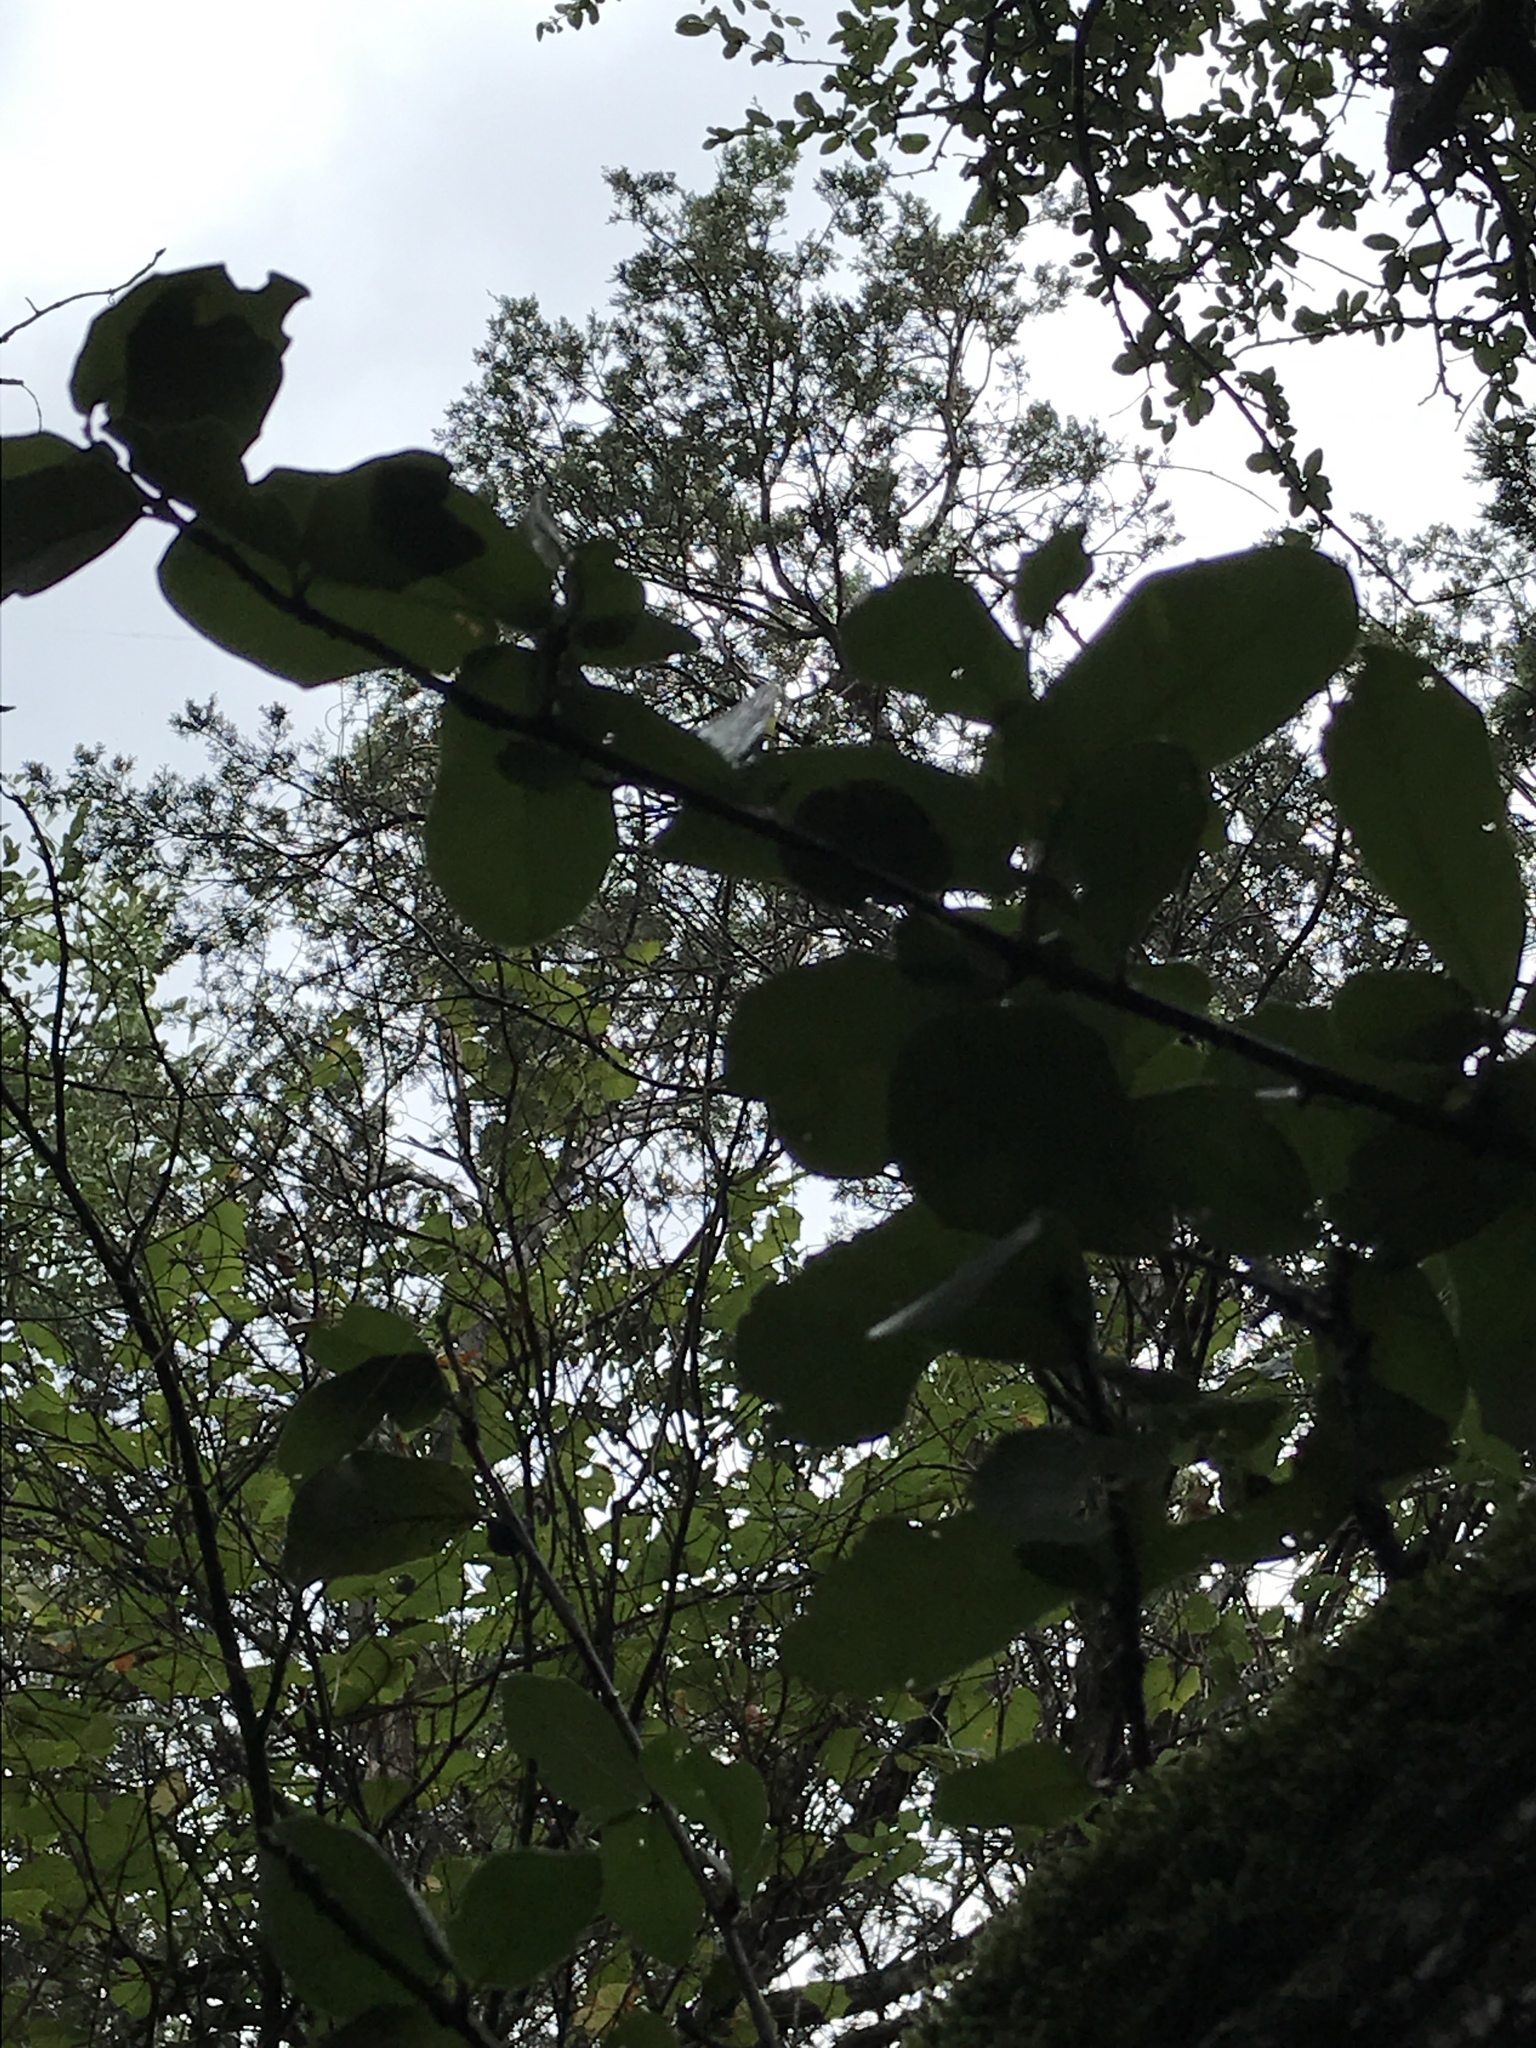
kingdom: Plantae
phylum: Tracheophyta
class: Magnoliopsida
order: Fagales
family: Fagaceae
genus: Quercus
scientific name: Quercus fusiformis
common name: Texas live oak
